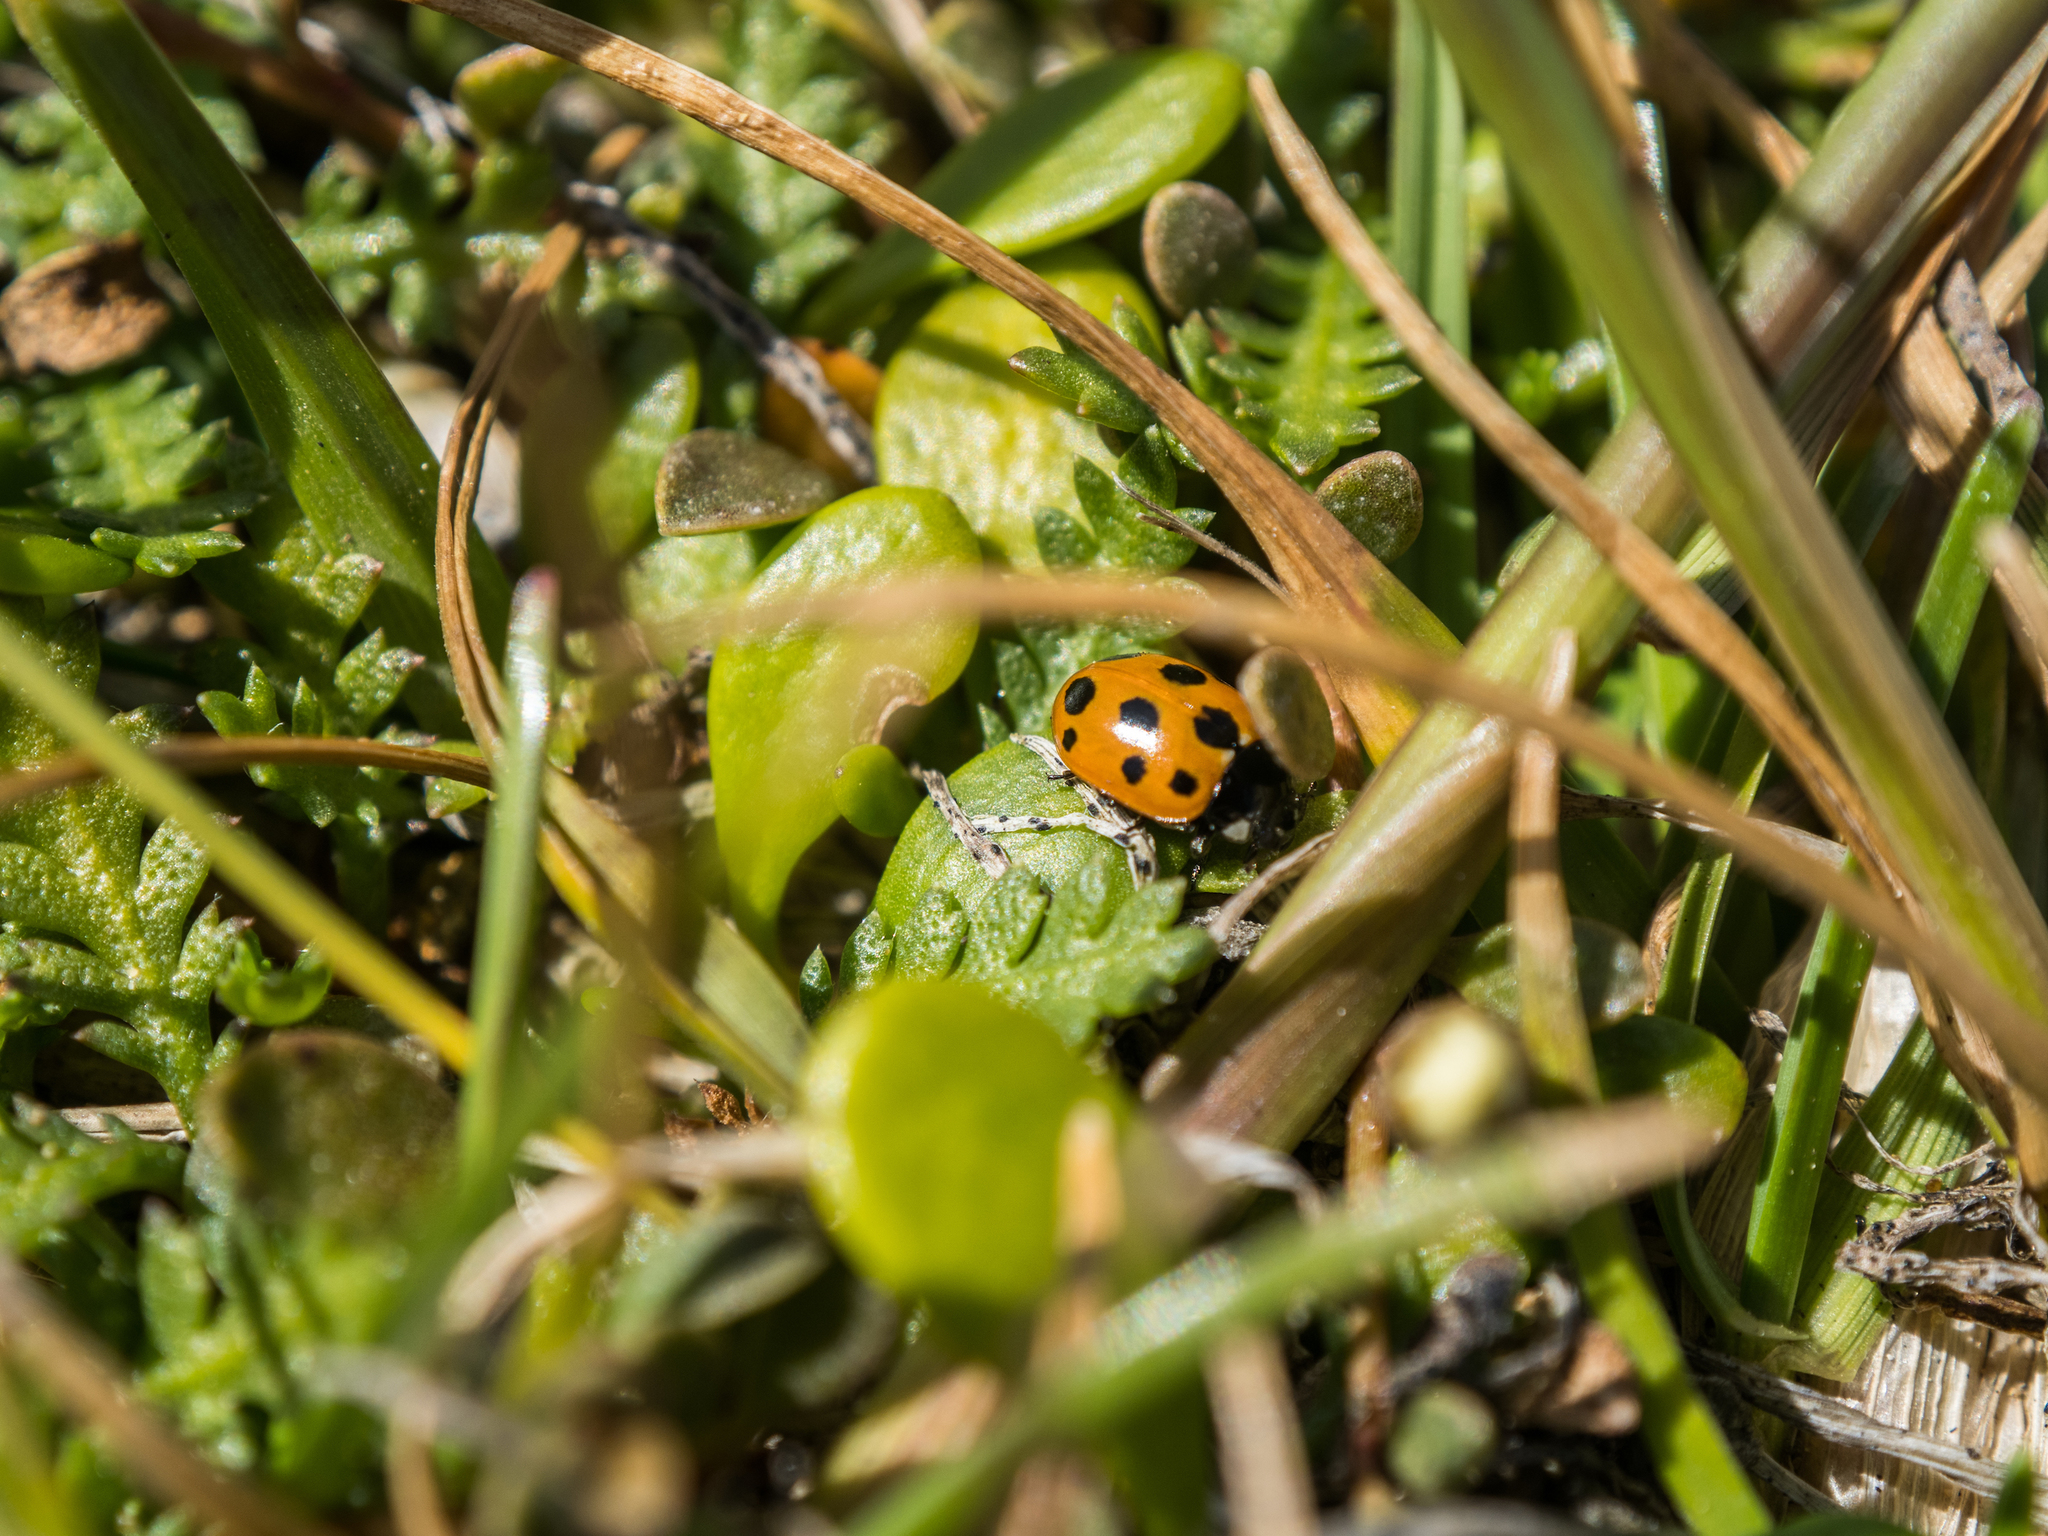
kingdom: Animalia
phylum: Arthropoda
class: Insecta
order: Coleoptera
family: Coccinellidae
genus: Coccinella
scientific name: Coccinella undecimpunctata
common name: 11-spot ladybird
